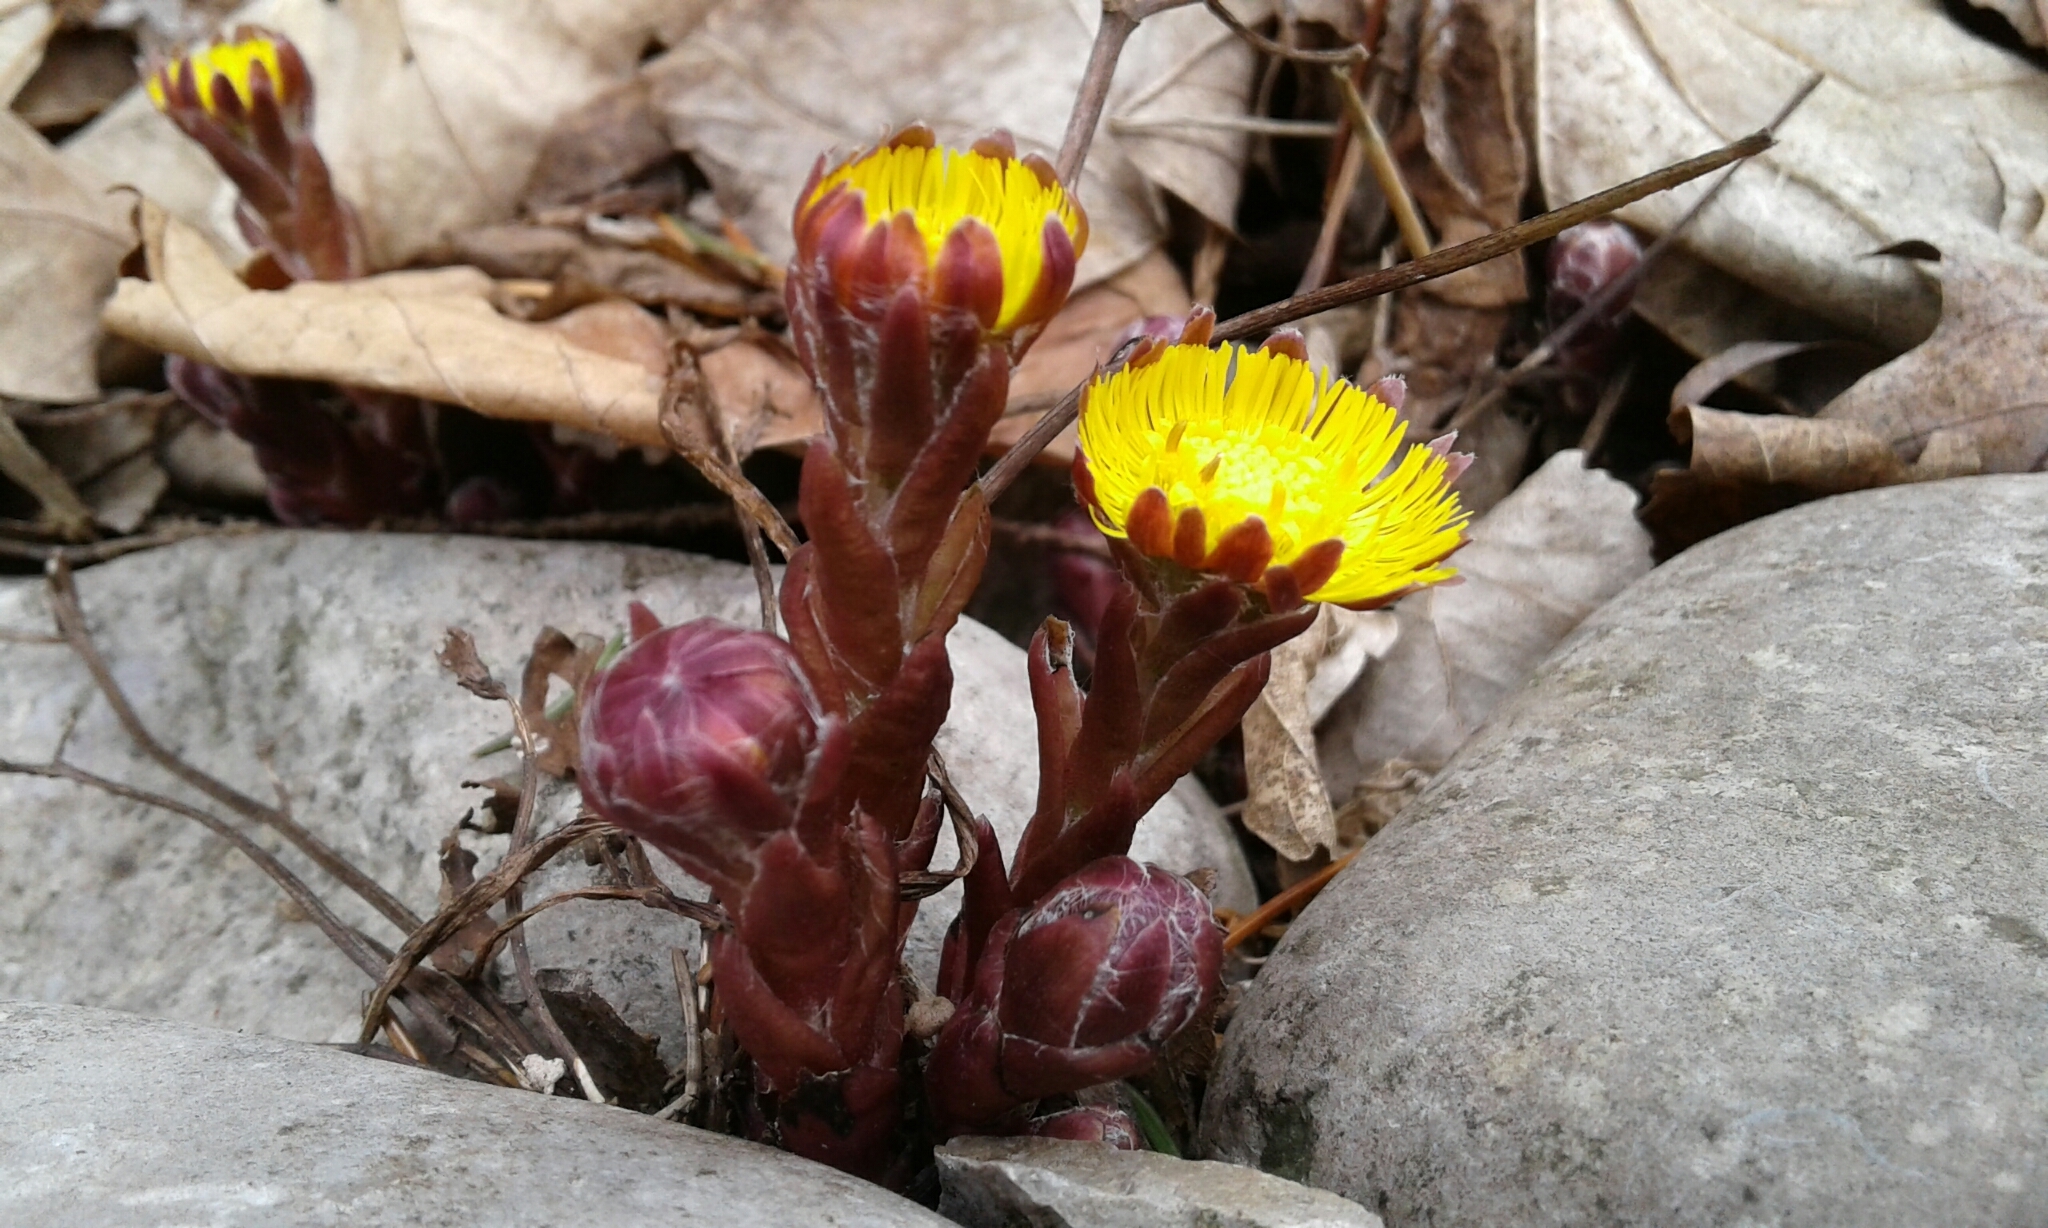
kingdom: Plantae
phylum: Tracheophyta
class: Magnoliopsida
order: Asterales
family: Asteraceae
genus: Tussilago
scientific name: Tussilago farfara
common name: Coltsfoot
